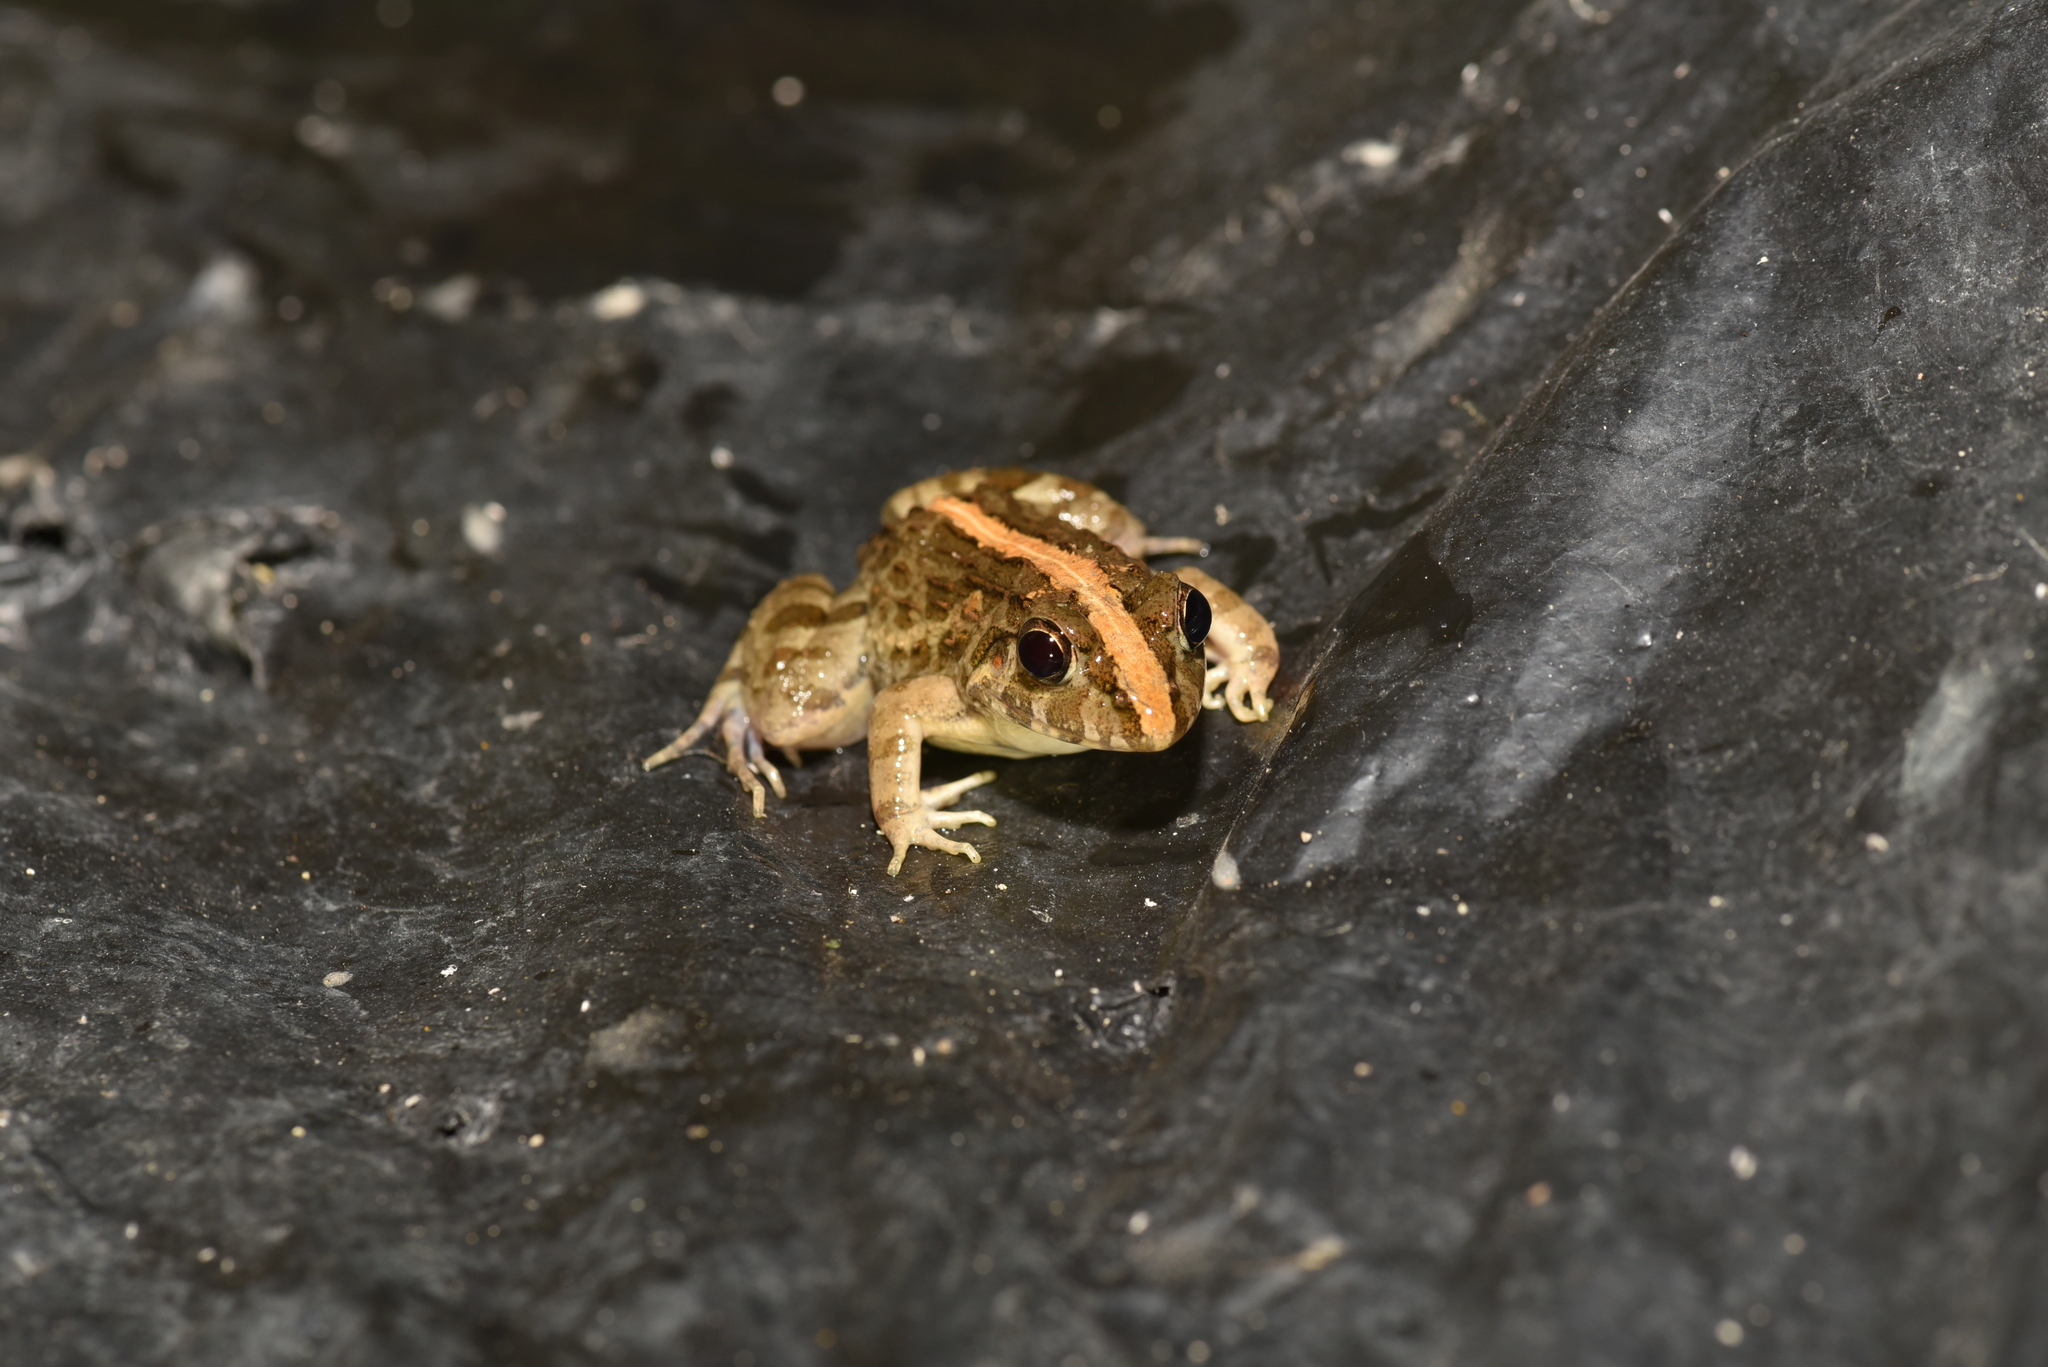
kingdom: Animalia
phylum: Chordata
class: Amphibia
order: Anura
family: Dicroglossidae
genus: Fejervarya
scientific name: Fejervarya limnocharis
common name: Asian grass frog/common pond frog/field frog/grass frog/indian rice frog
